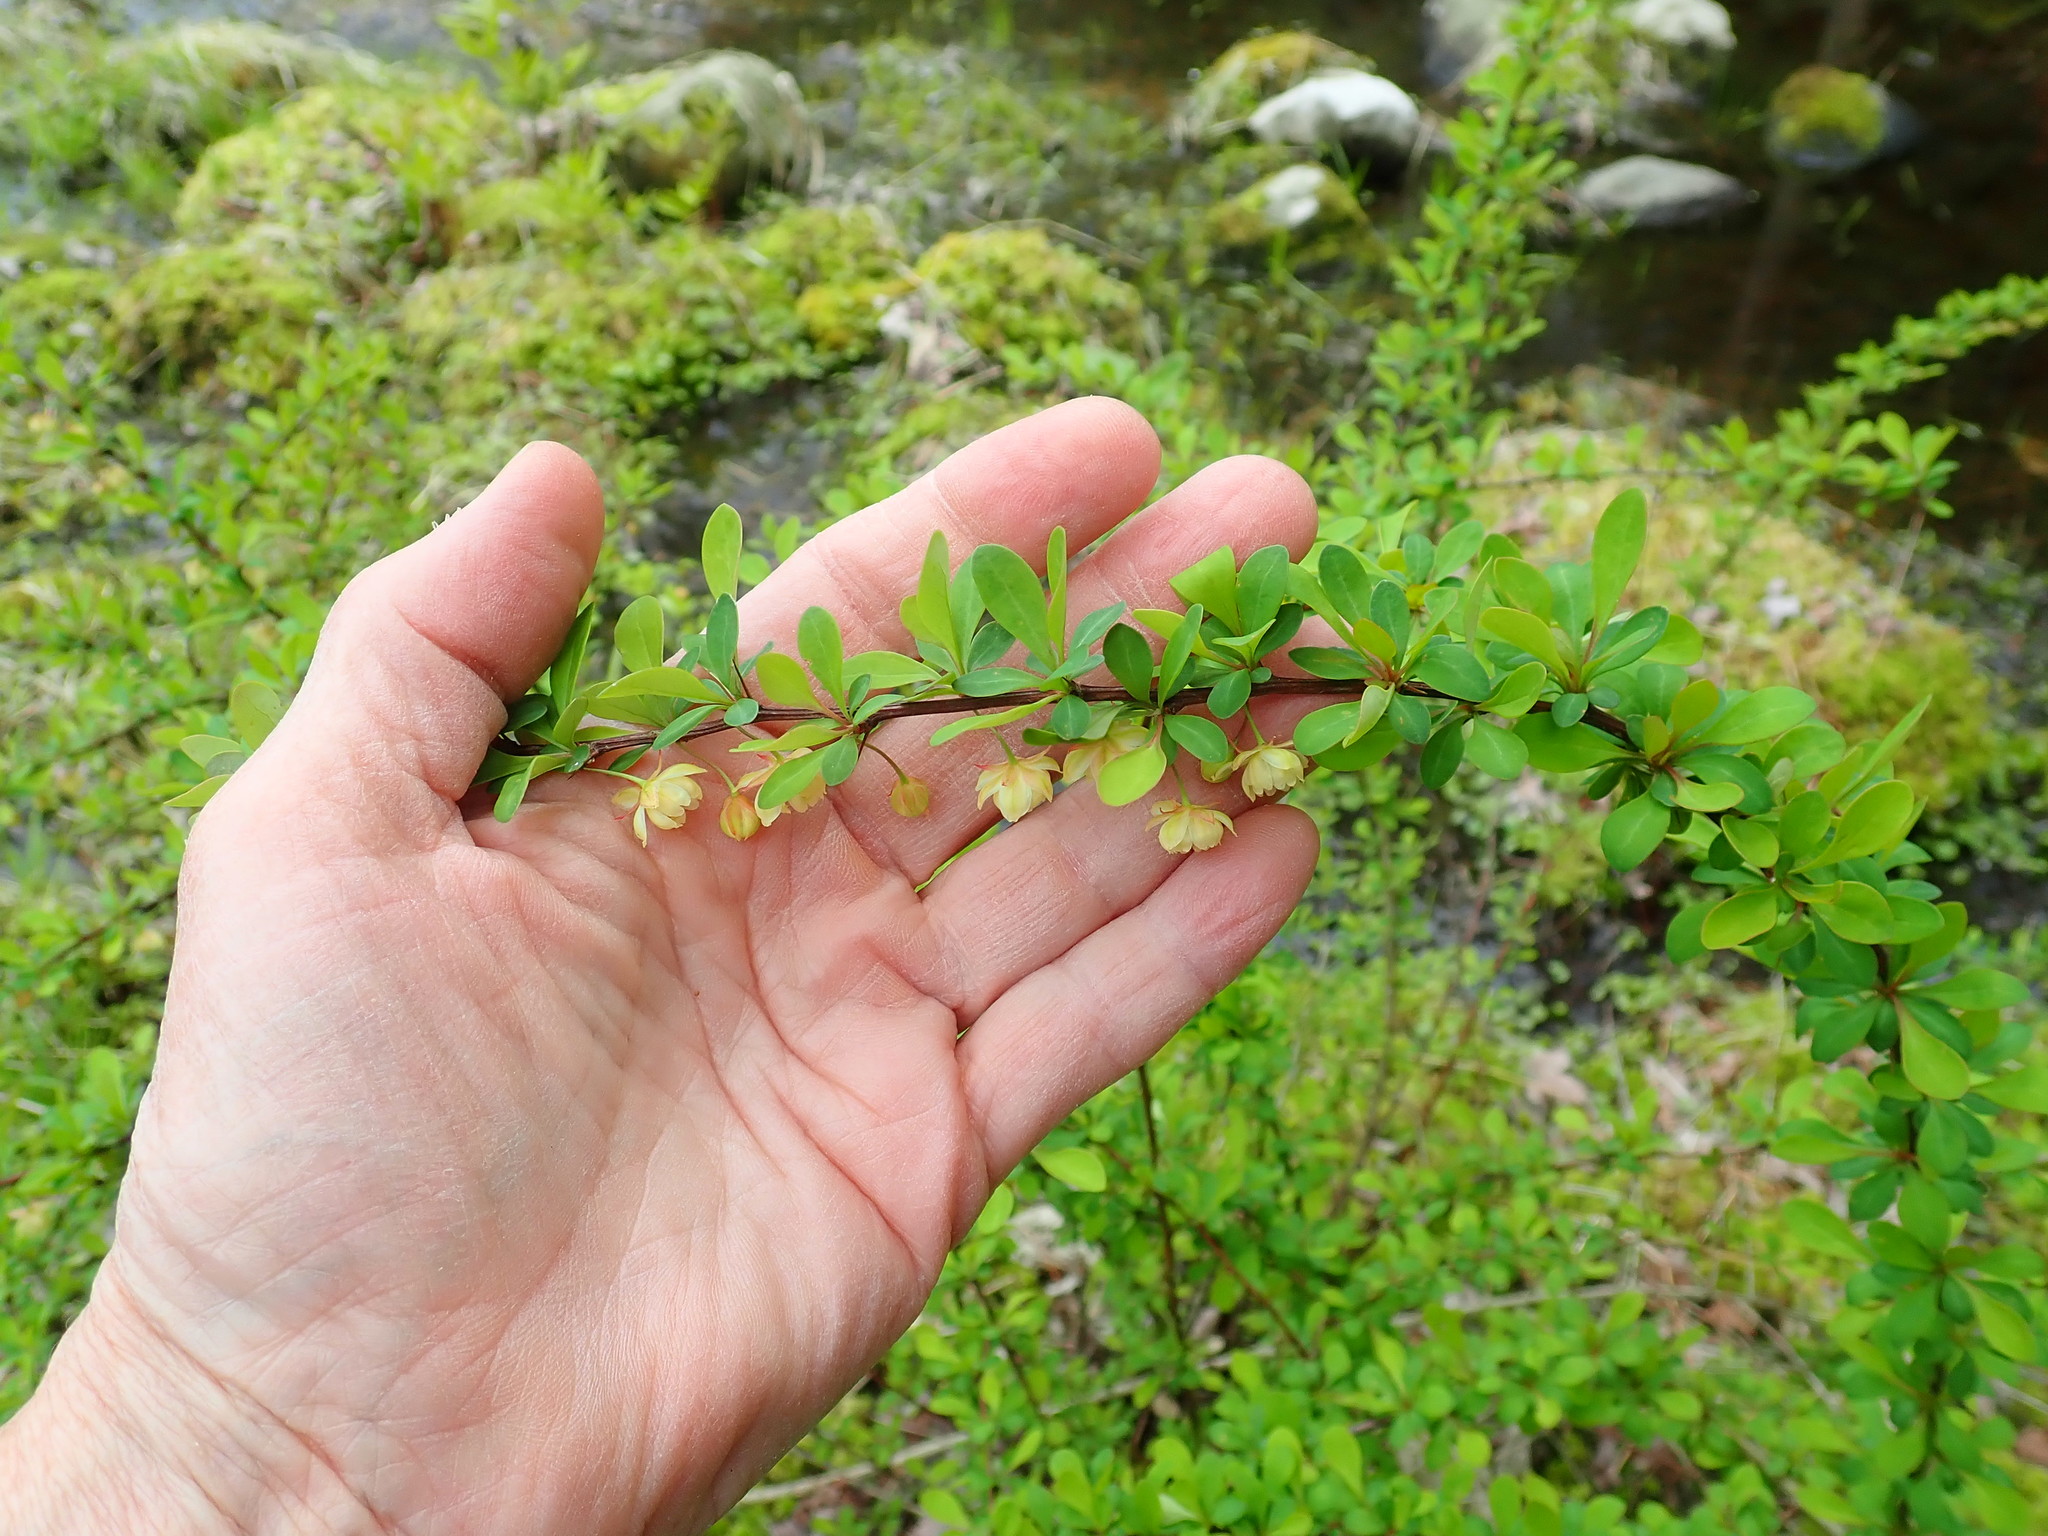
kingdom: Plantae
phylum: Tracheophyta
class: Magnoliopsida
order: Ranunculales
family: Berberidaceae
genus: Berberis
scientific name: Berberis thunbergii
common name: Japanese barberry
